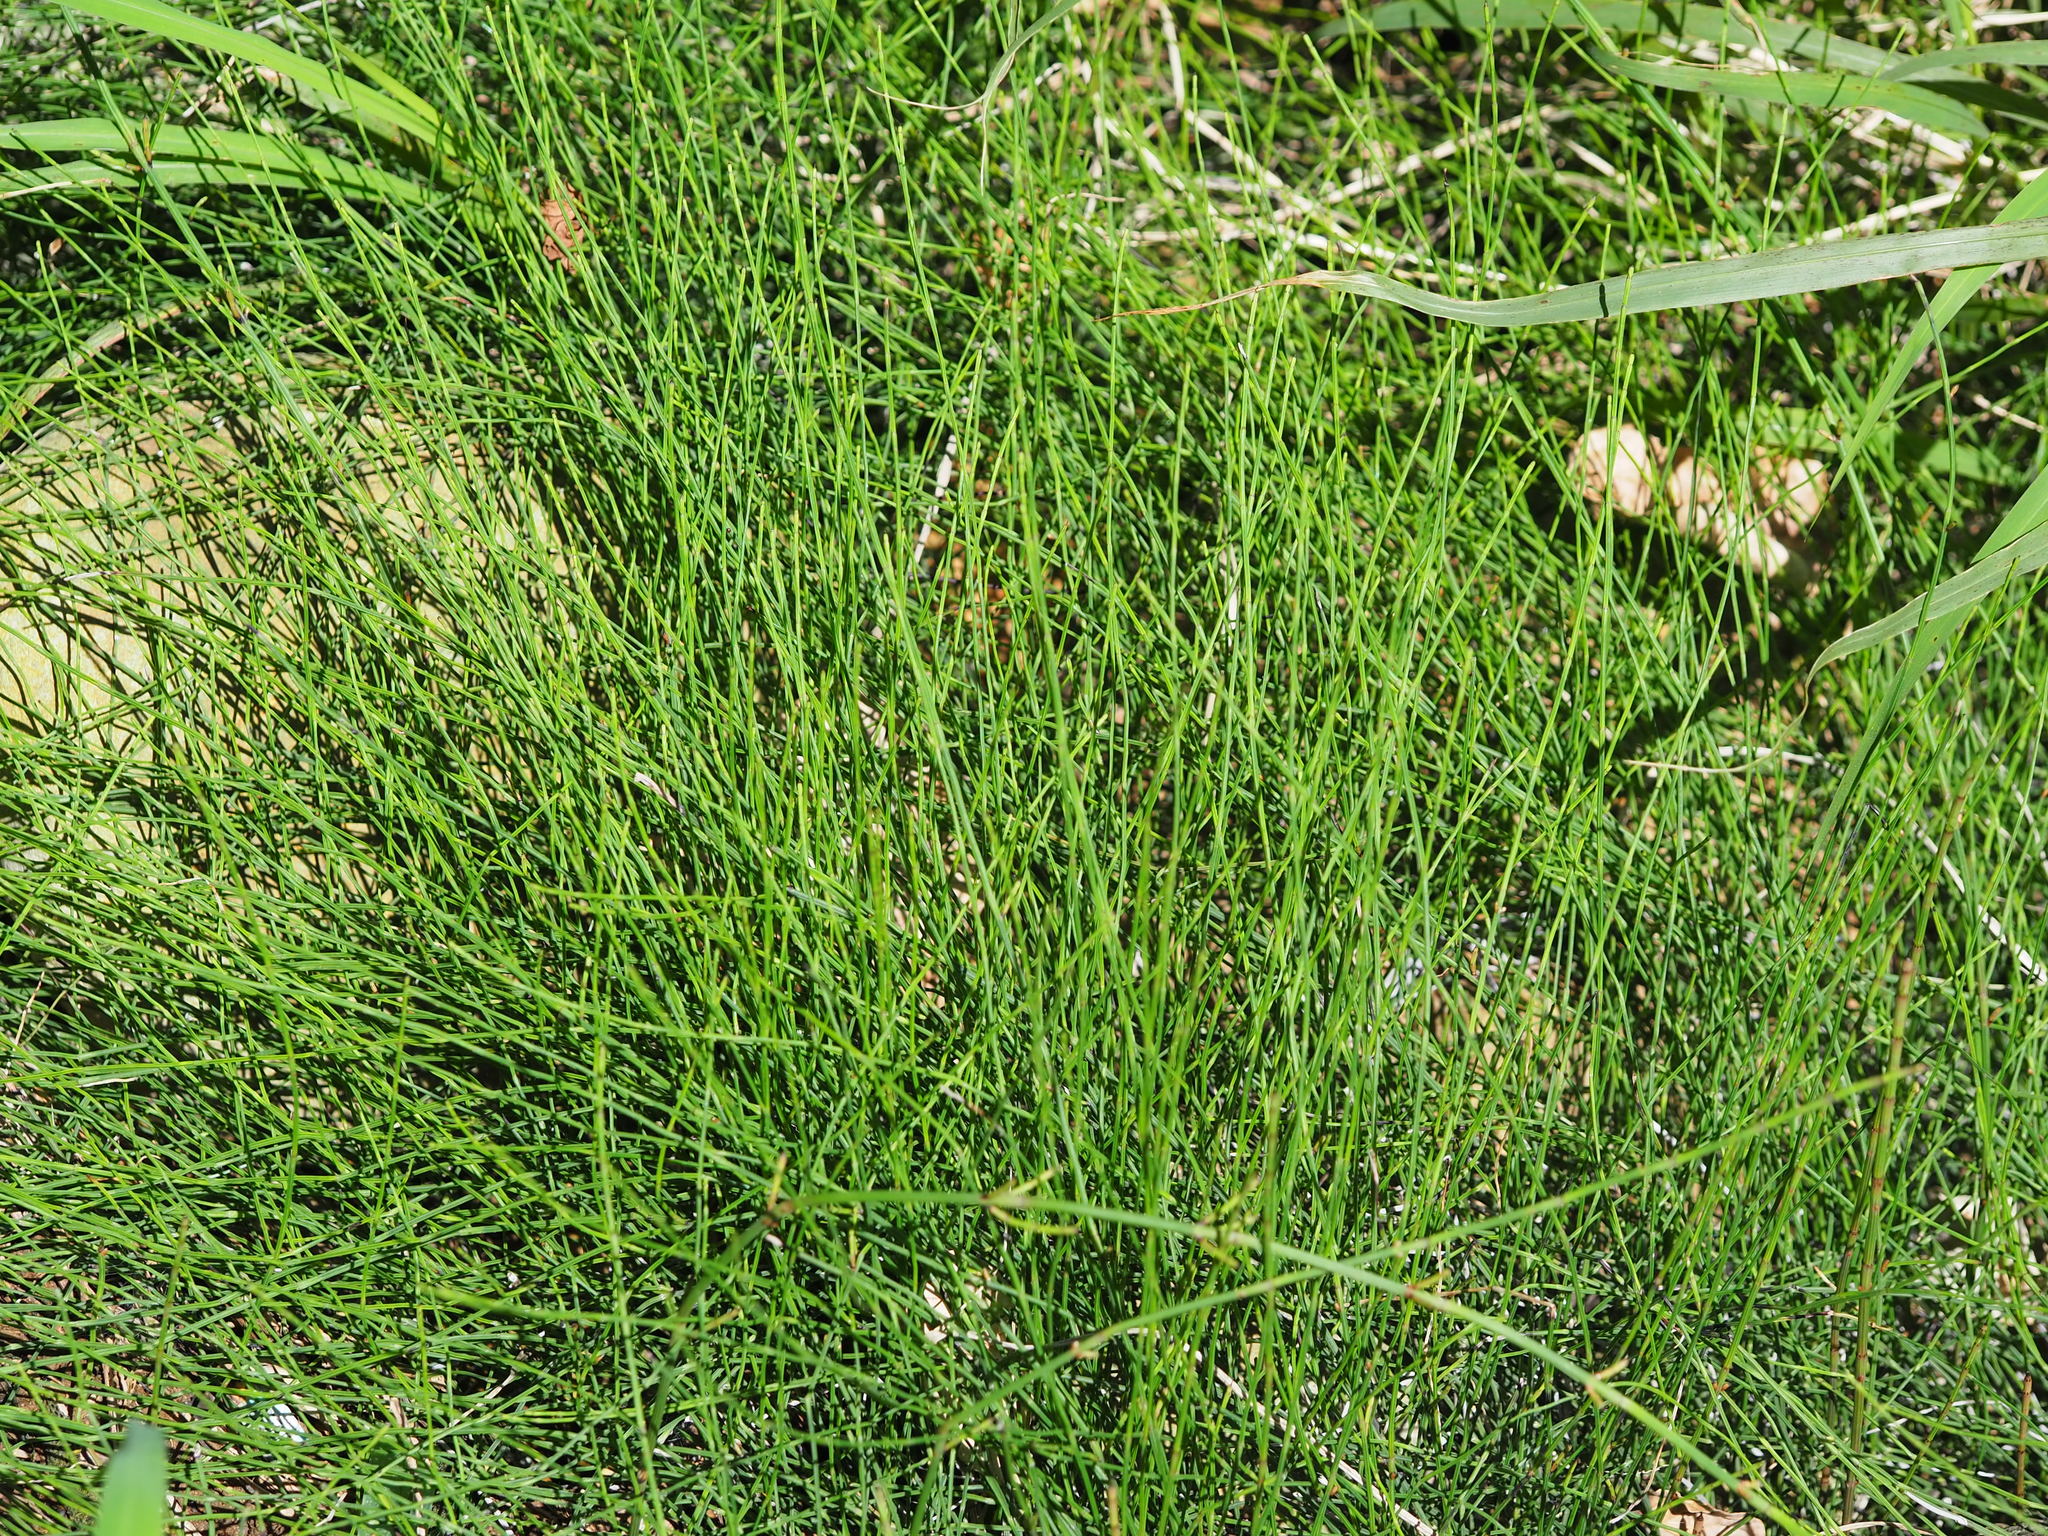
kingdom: Plantae
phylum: Tracheophyta
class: Polypodiopsida
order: Equisetales
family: Equisetaceae
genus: Equisetum
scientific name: Equisetum ramosissimum
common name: Branched horsetail
